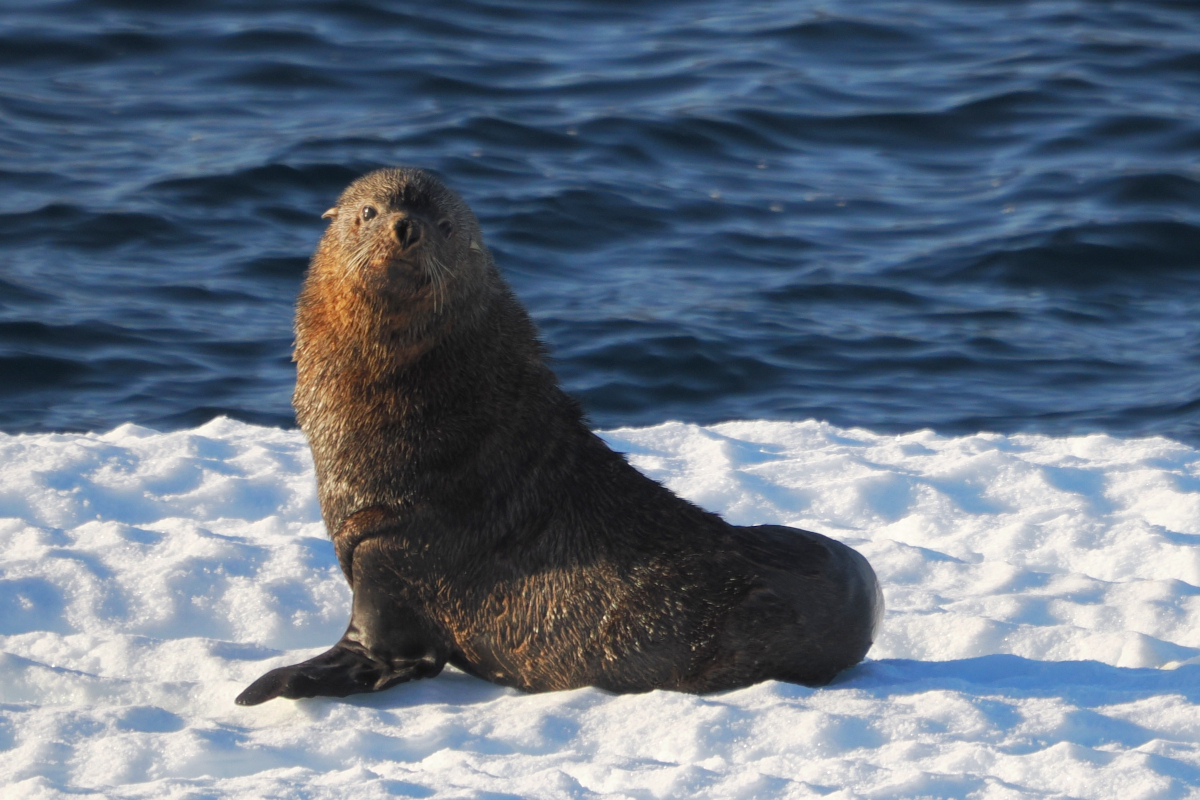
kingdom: Animalia
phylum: Chordata
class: Mammalia
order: Carnivora
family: Otariidae
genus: Arctocephalus
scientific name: Arctocephalus gazella
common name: Antarctic fur seal
